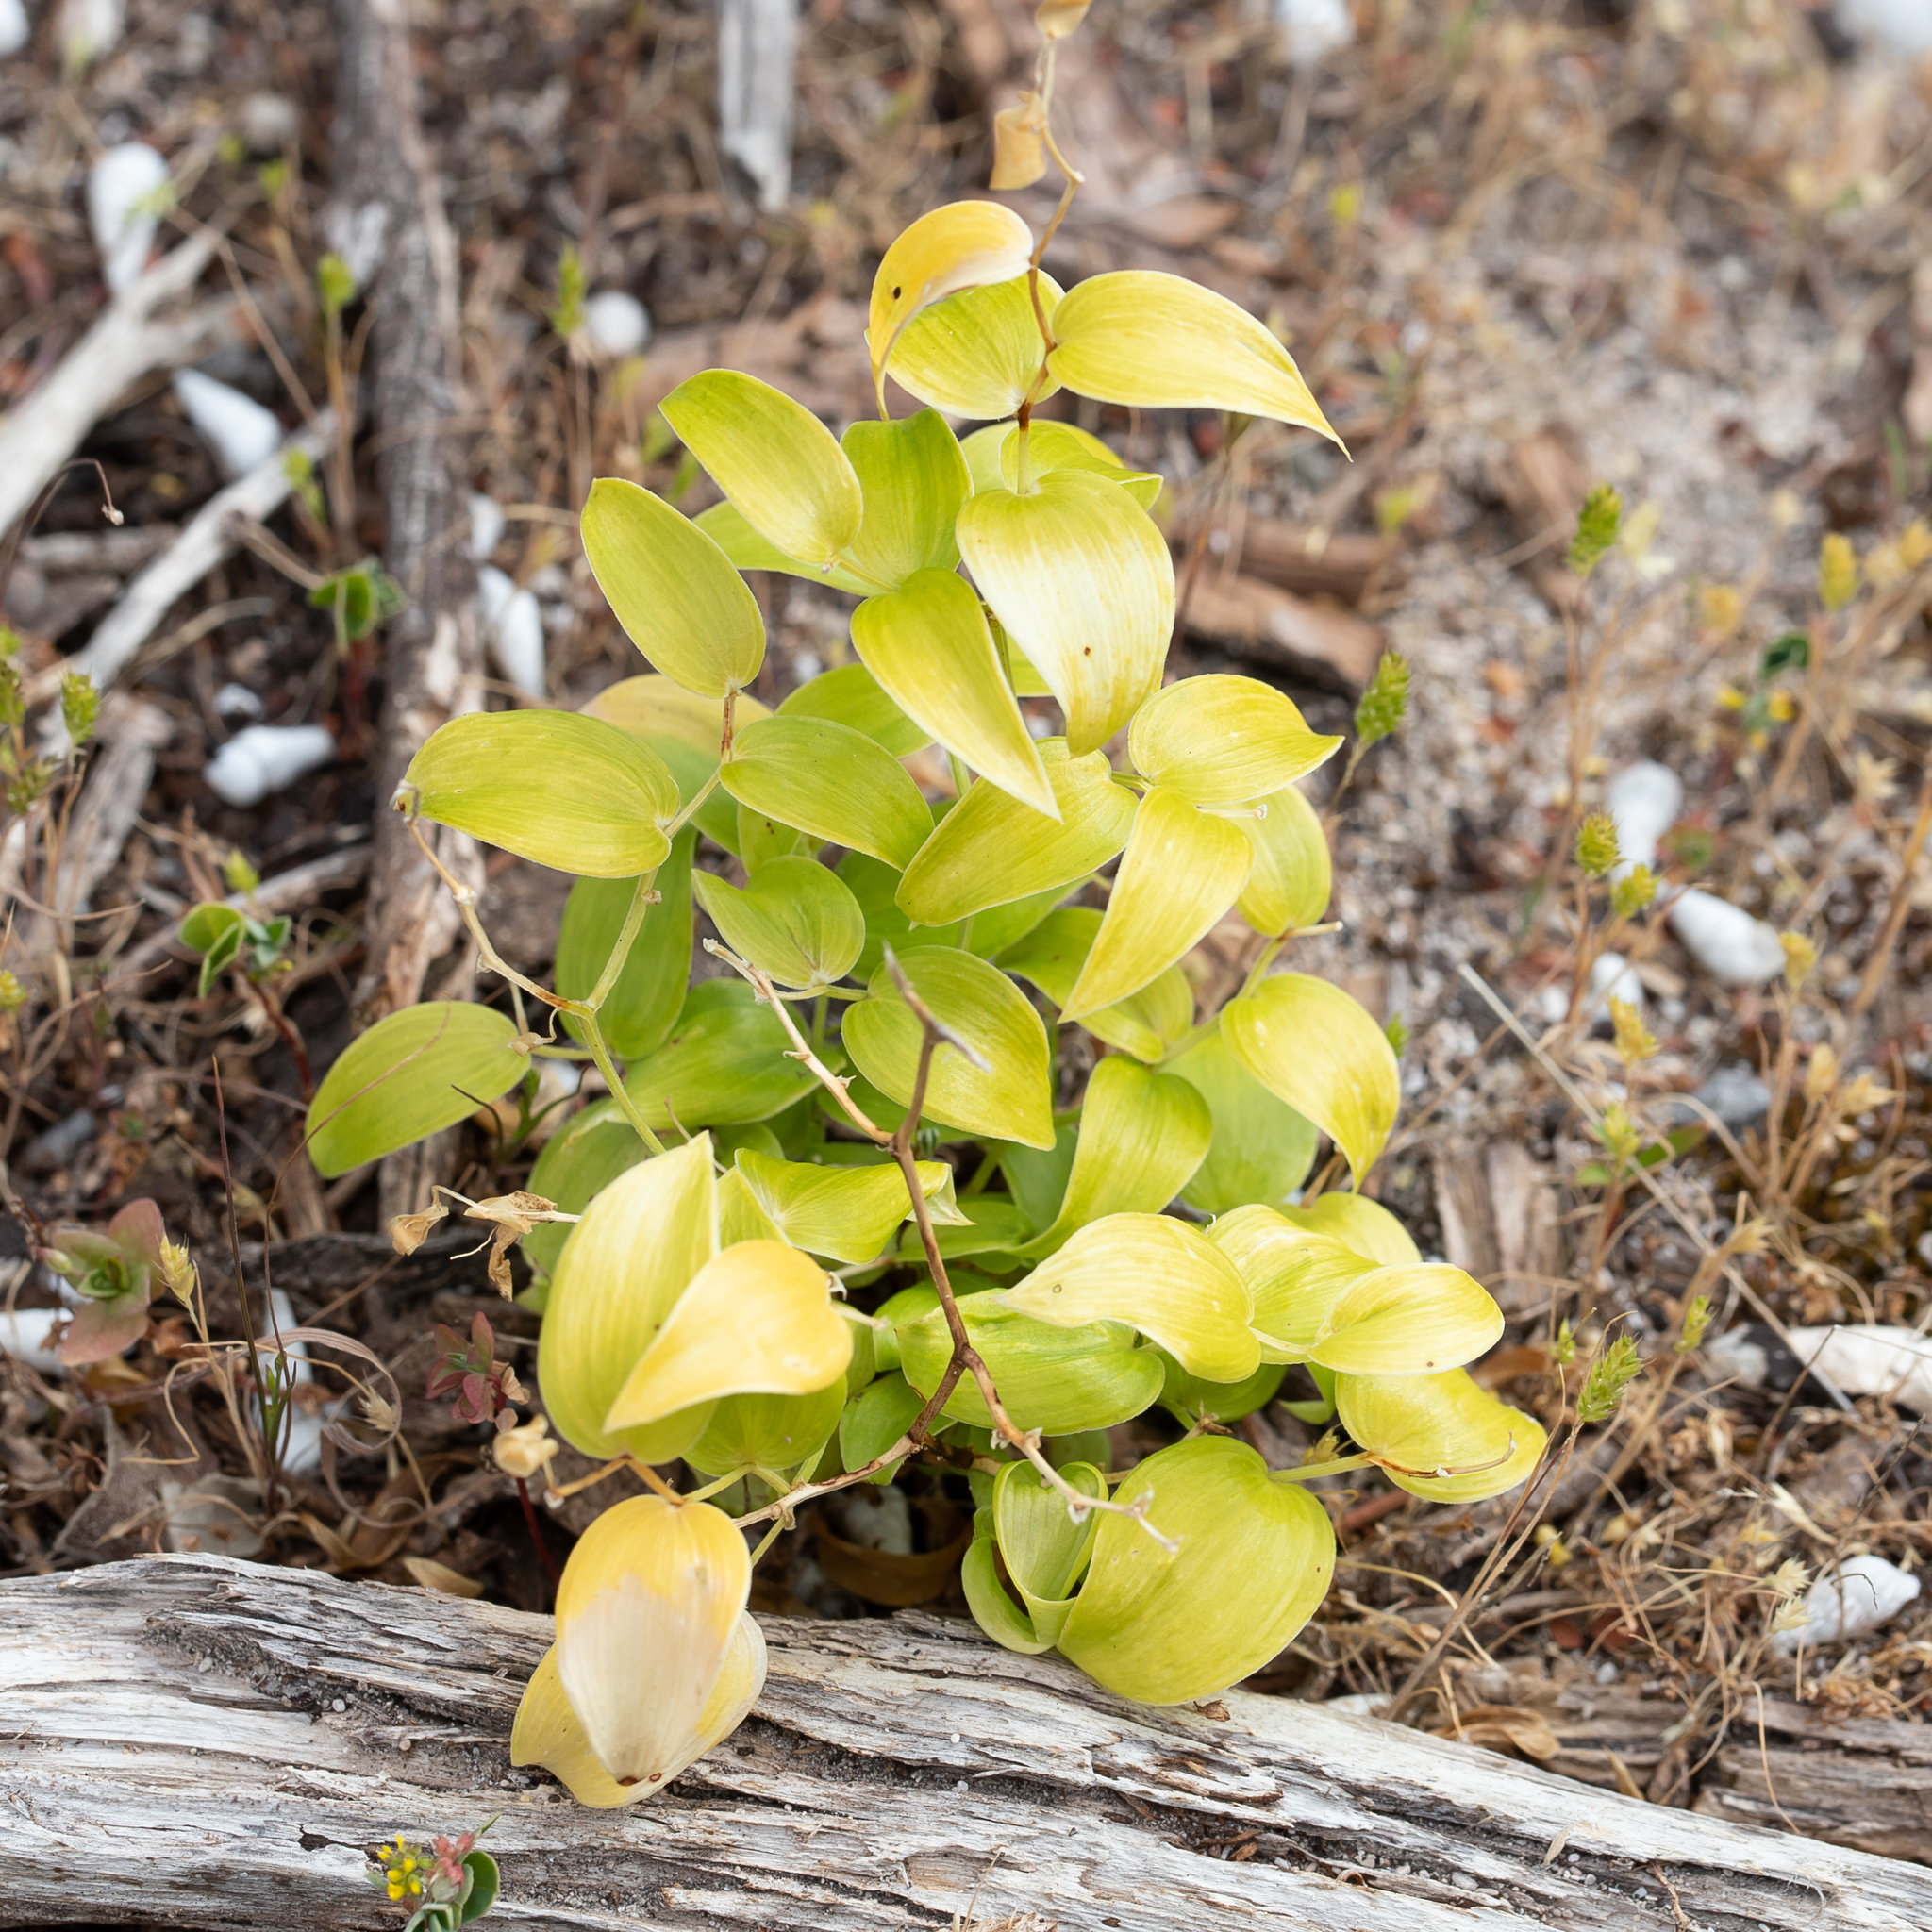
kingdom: Plantae
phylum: Tracheophyta
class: Liliopsida
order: Asparagales
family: Asparagaceae
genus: Asparagus
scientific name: Asparagus asparagoides
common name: African asparagus fern
